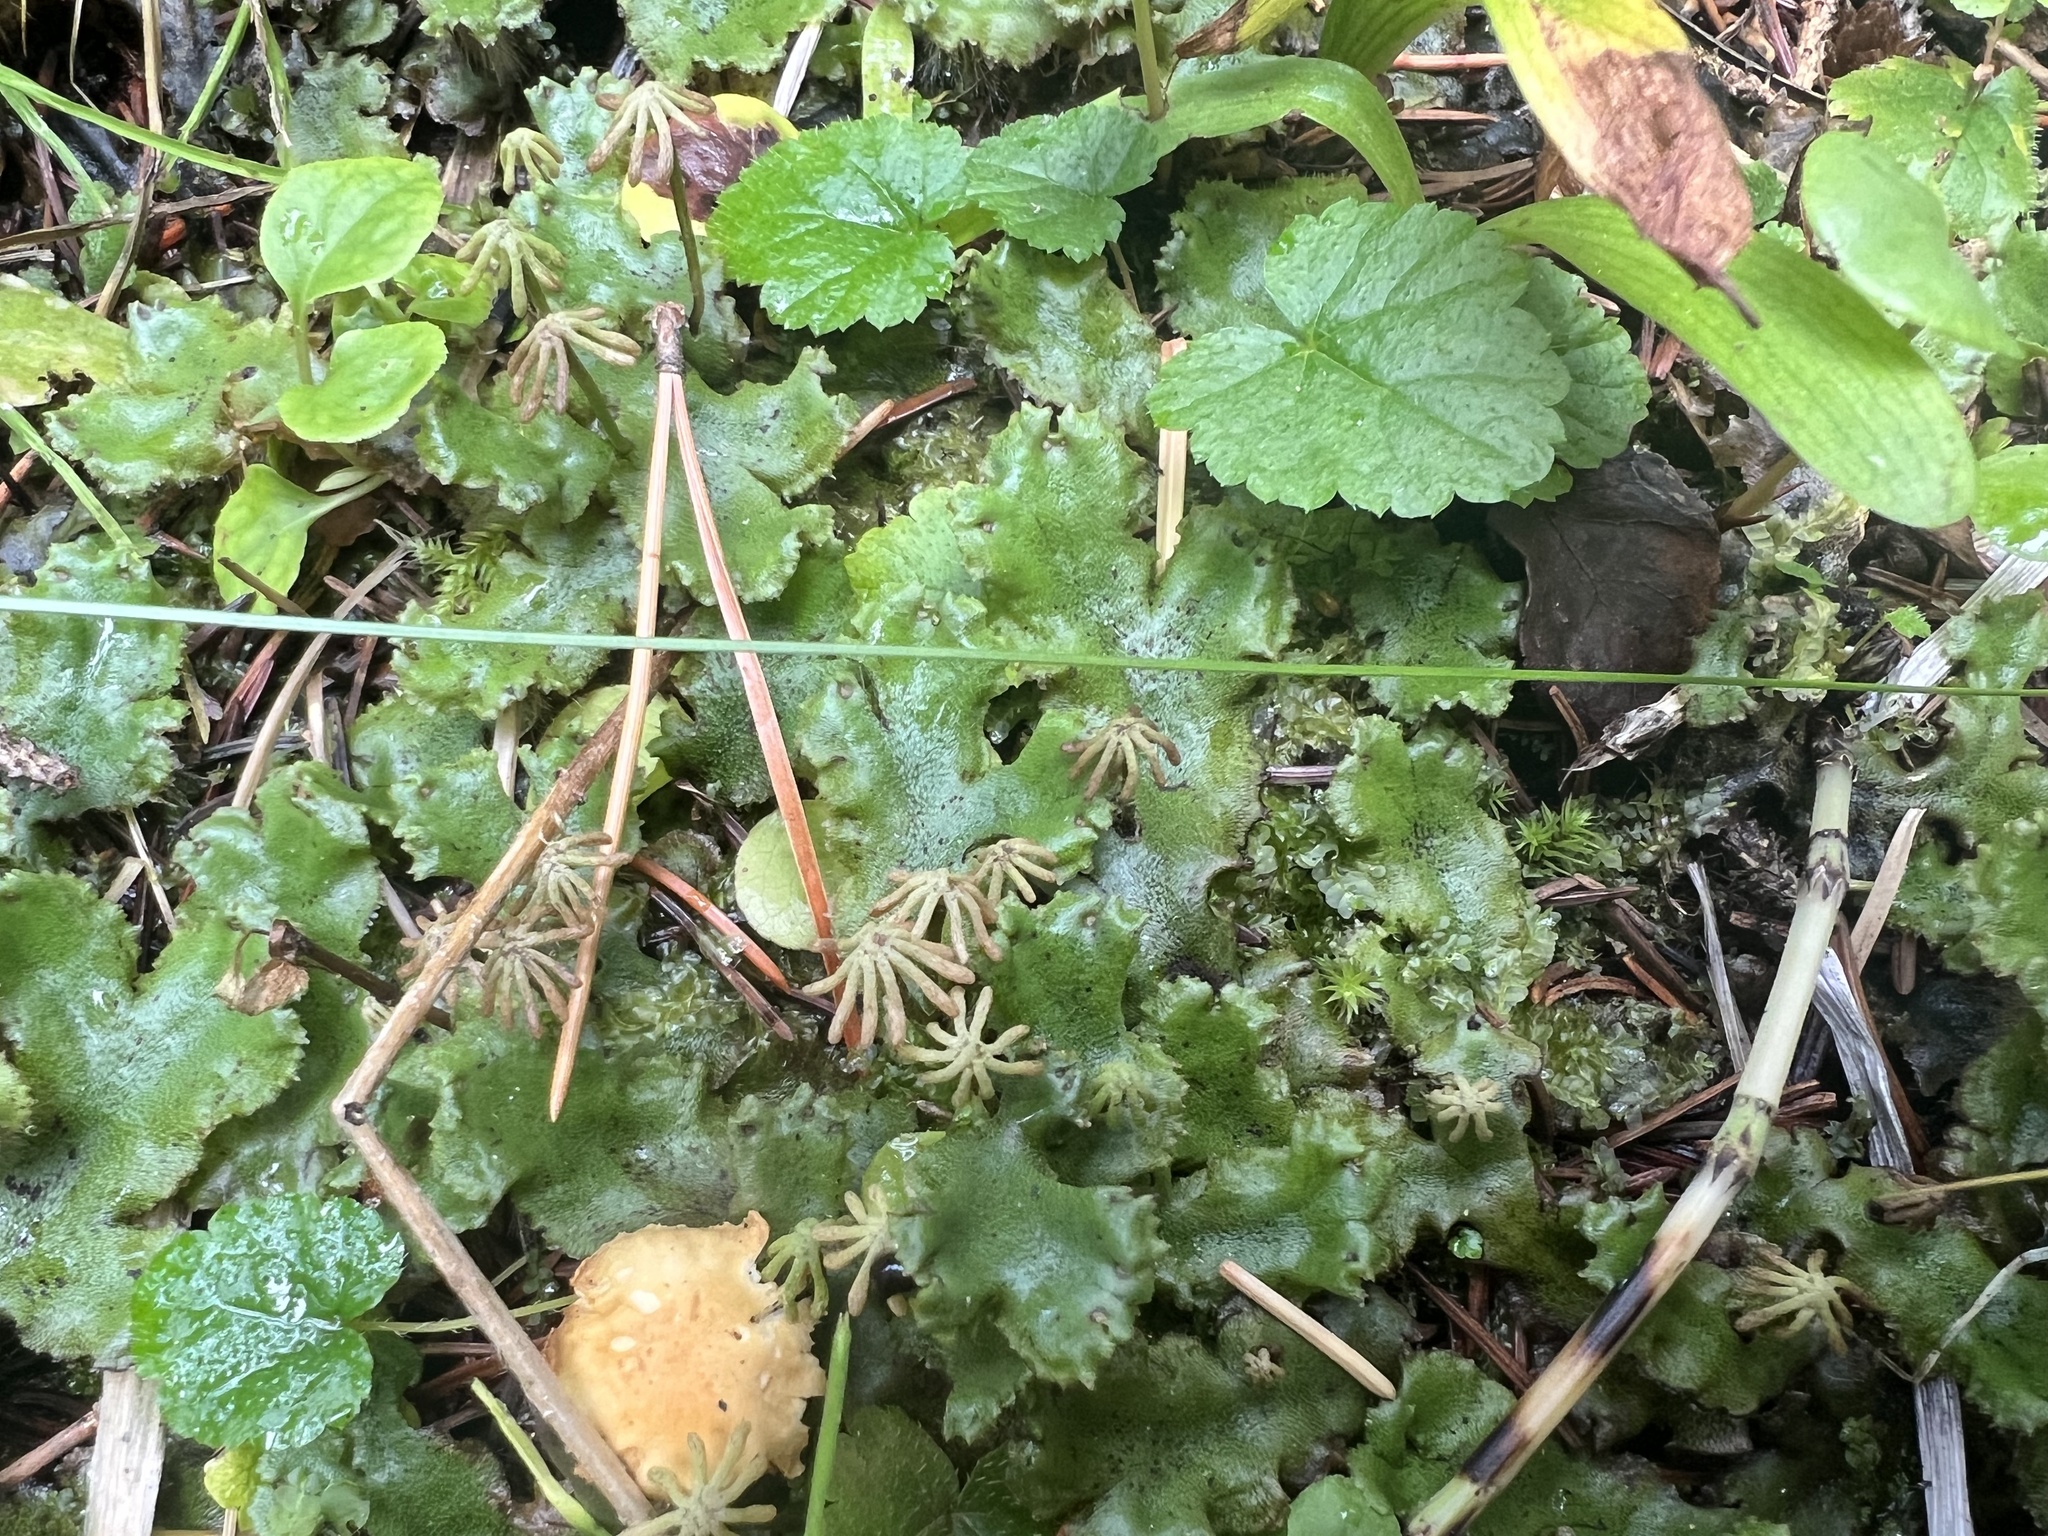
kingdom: Plantae
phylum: Marchantiophyta
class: Marchantiopsida
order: Marchantiales
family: Marchantiaceae
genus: Marchantia
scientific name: Marchantia polymorpha
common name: Common liverwort
